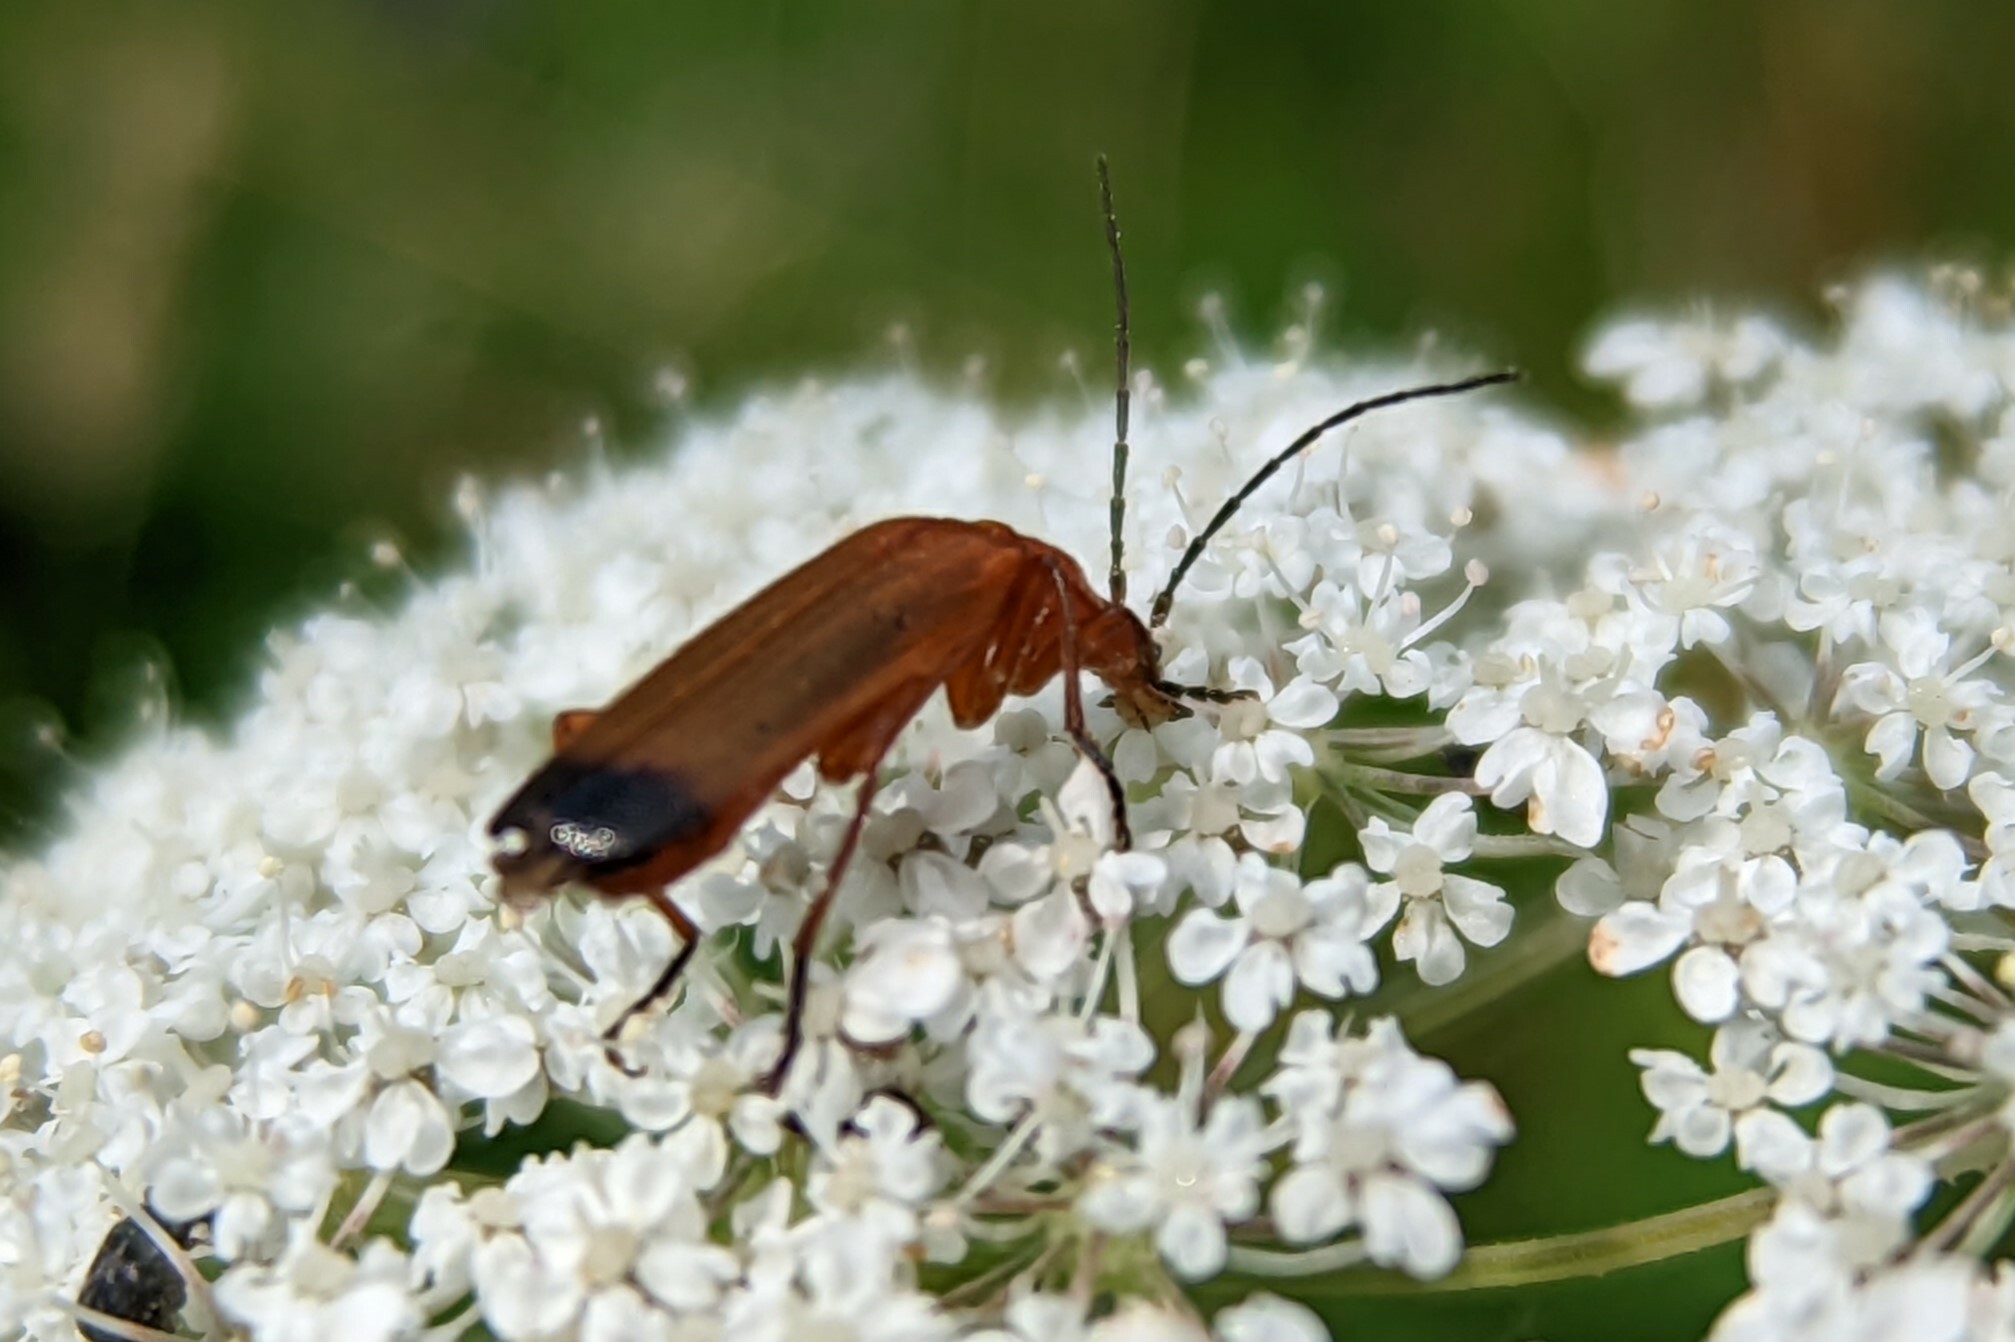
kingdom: Animalia
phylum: Arthropoda
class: Insecta
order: Coleoptera
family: Cantharidae
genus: Rhagonycha
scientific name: Rhagonycha fulva
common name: Common red soldier beetle
